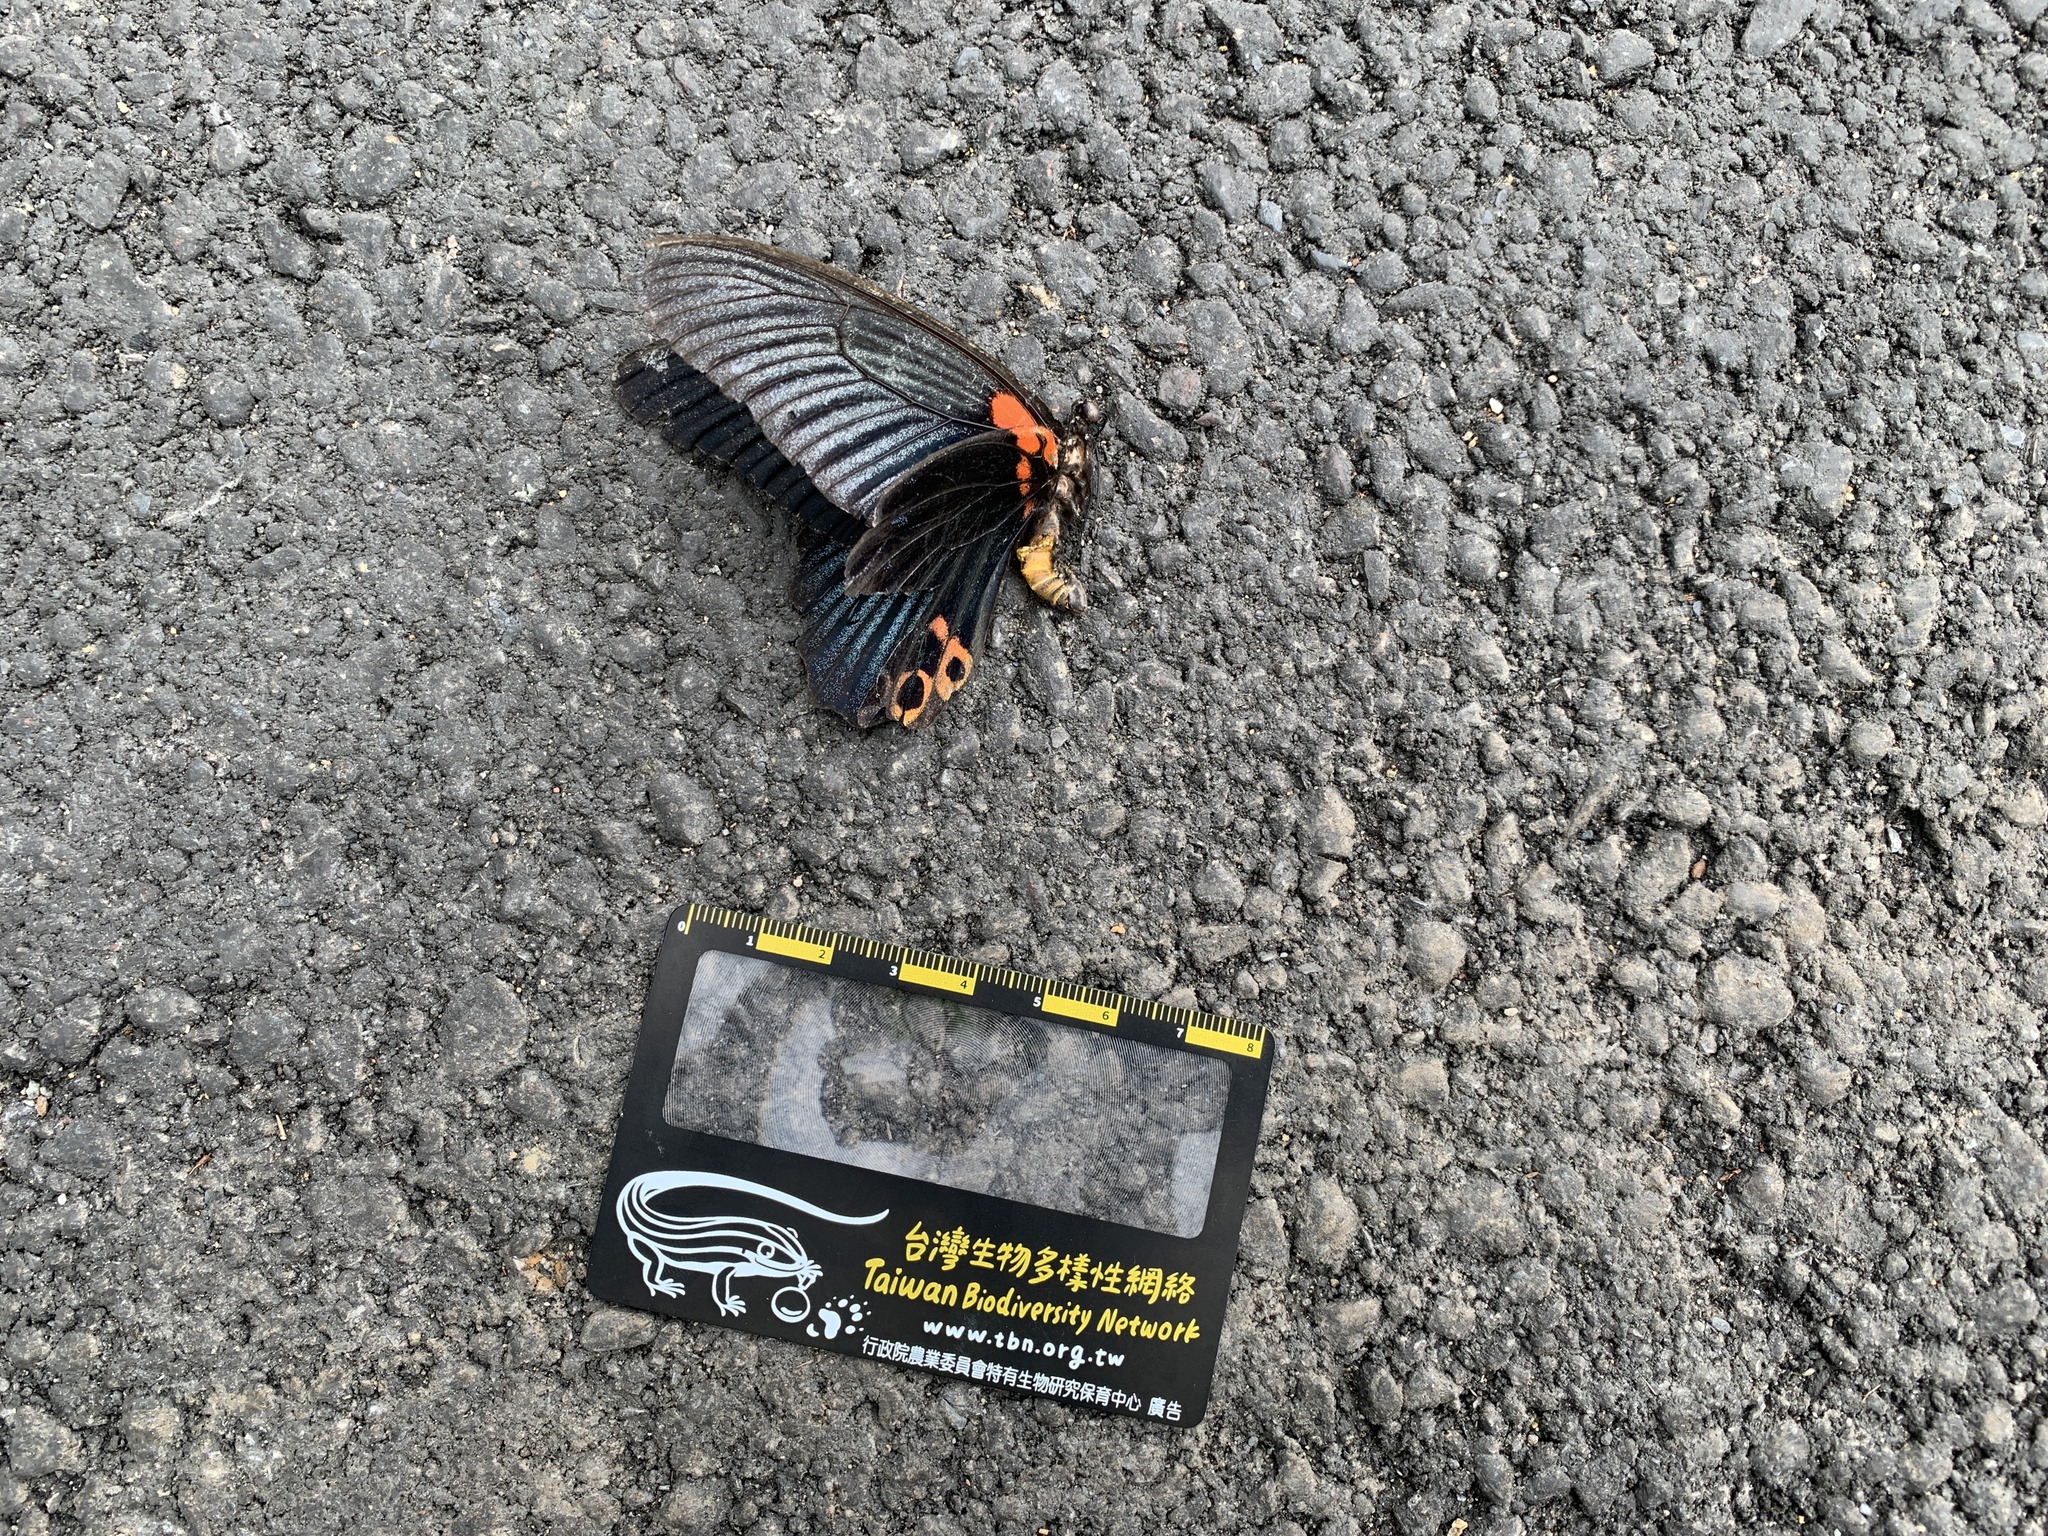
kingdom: Animalia
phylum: Arthropoda
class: Insecta
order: Lepidoptera
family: Papilionidae
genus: Papilio
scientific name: Papilio memnon
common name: Great mormon
